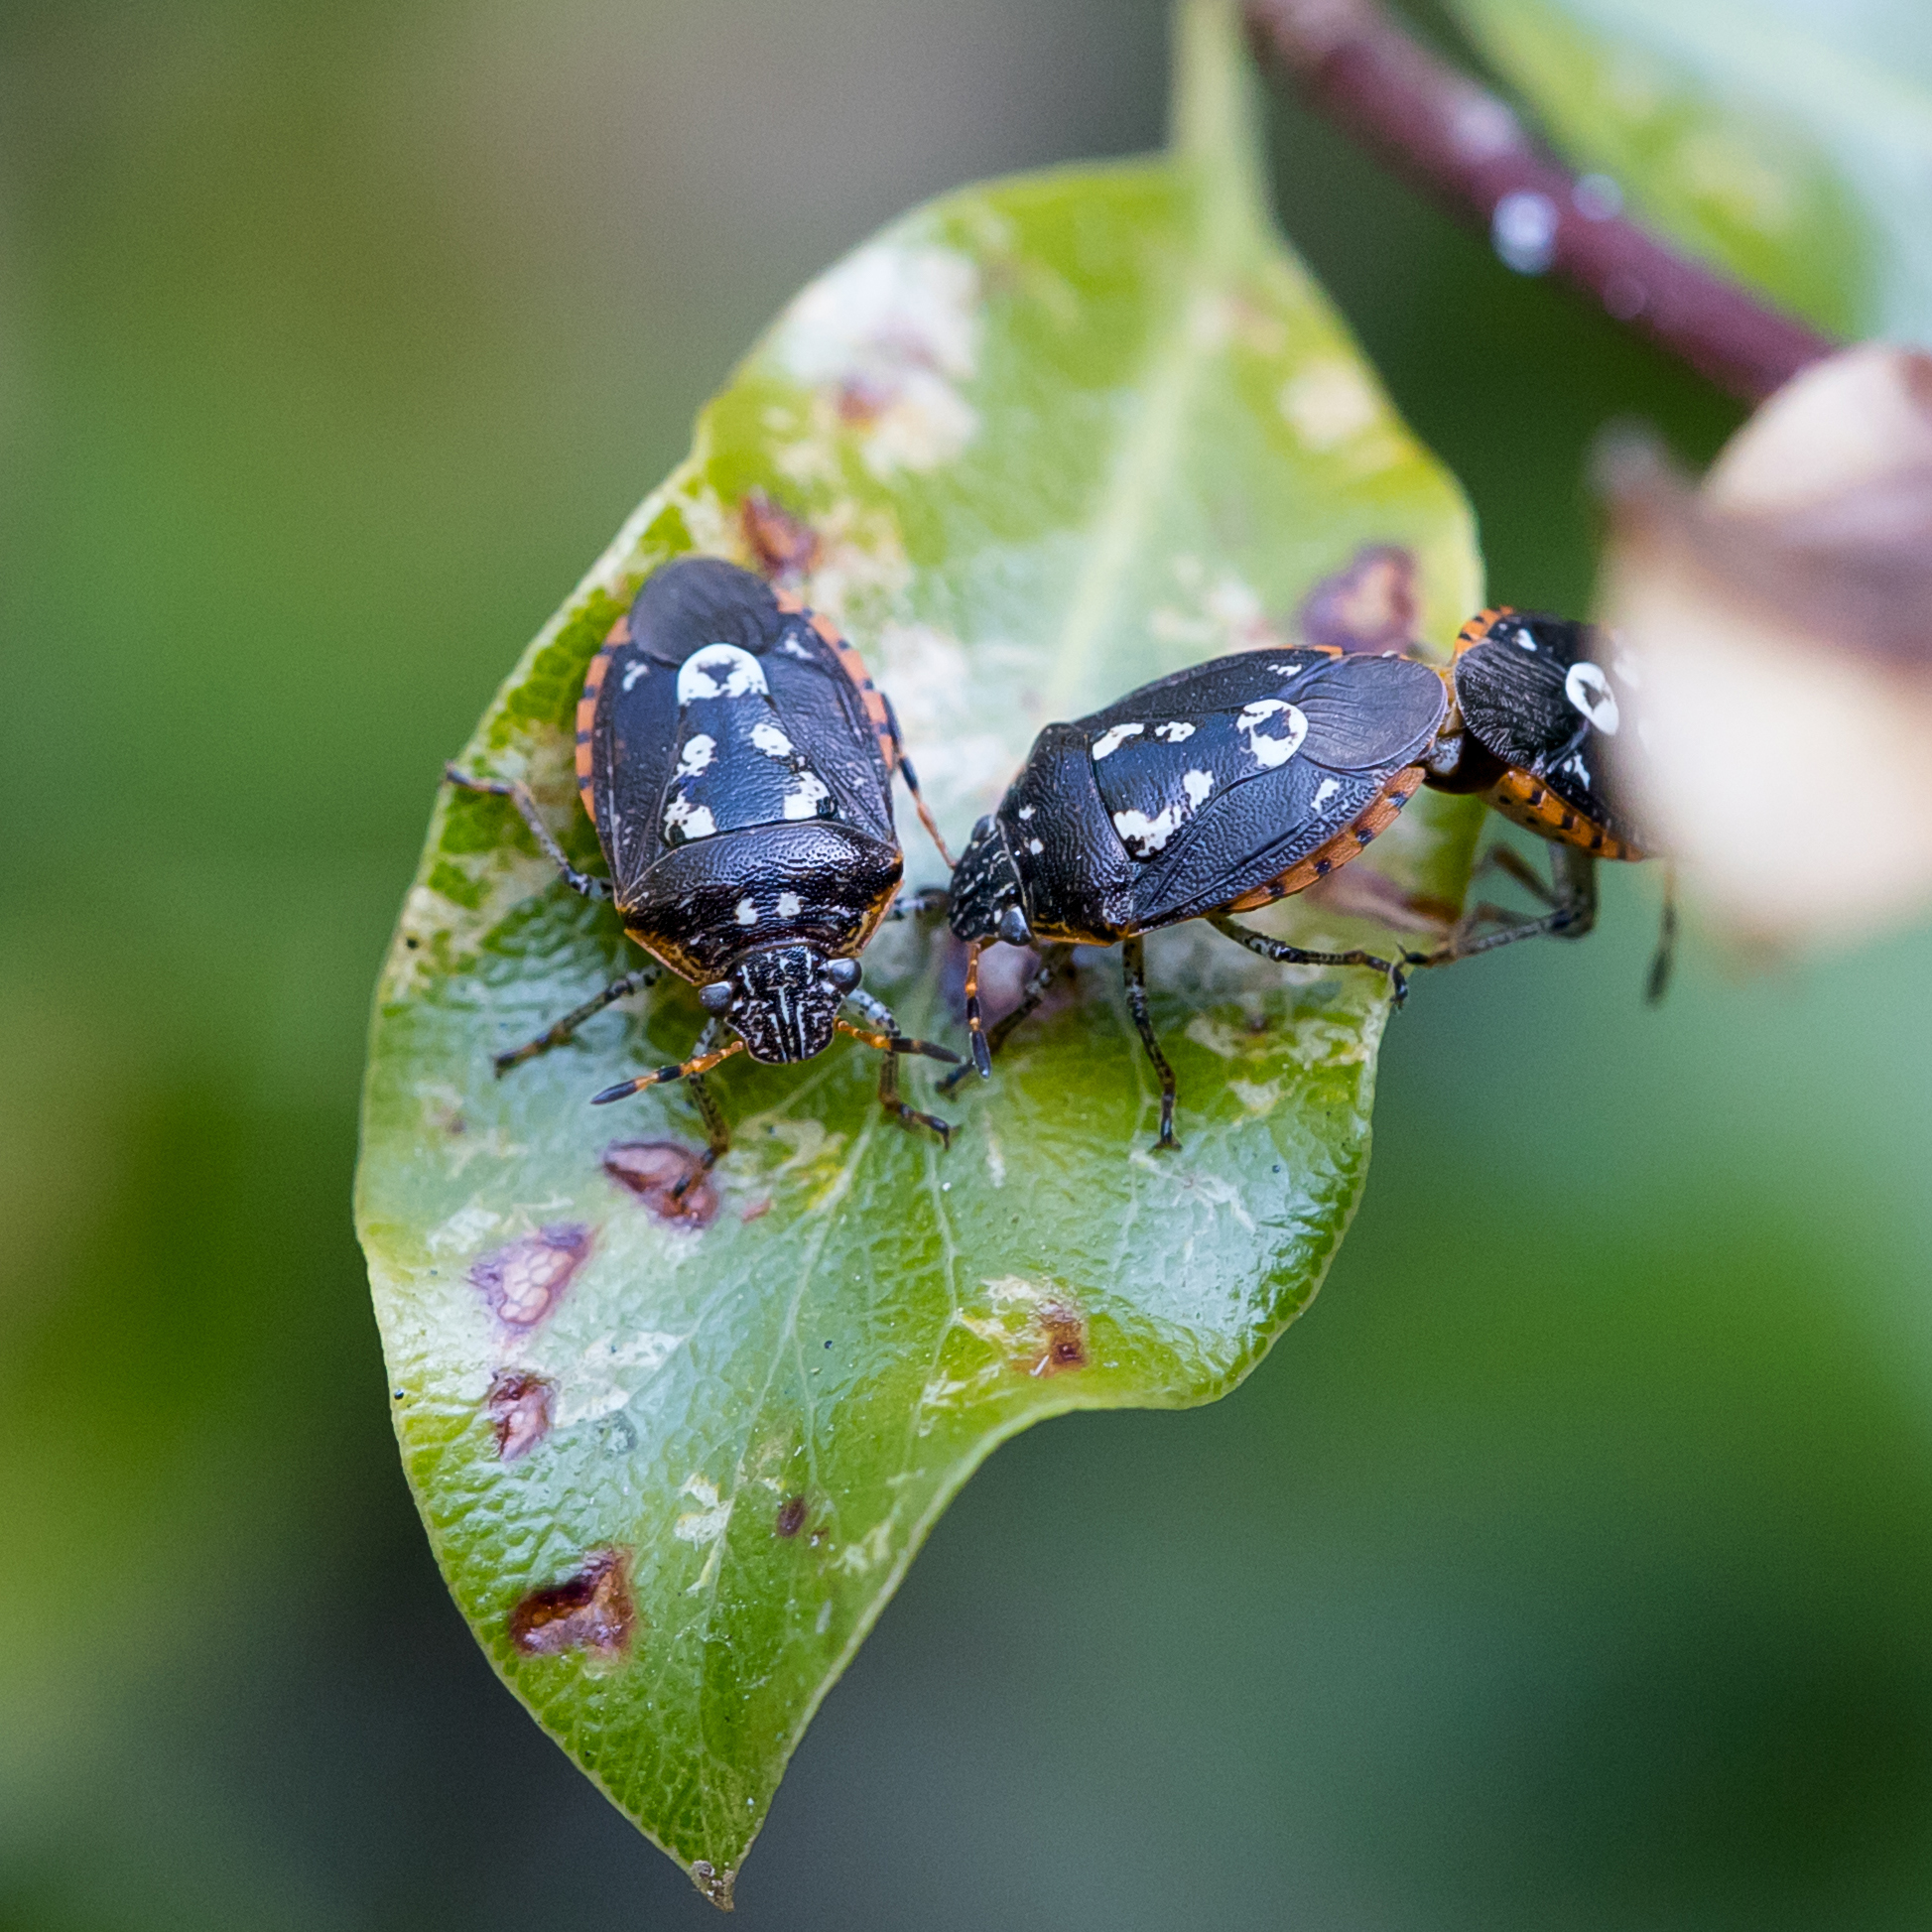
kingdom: Animalia
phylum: Arthropoda
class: Insecta
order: Hemiptera
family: Pentatomidae
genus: Pseudapines
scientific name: Pseudapines
